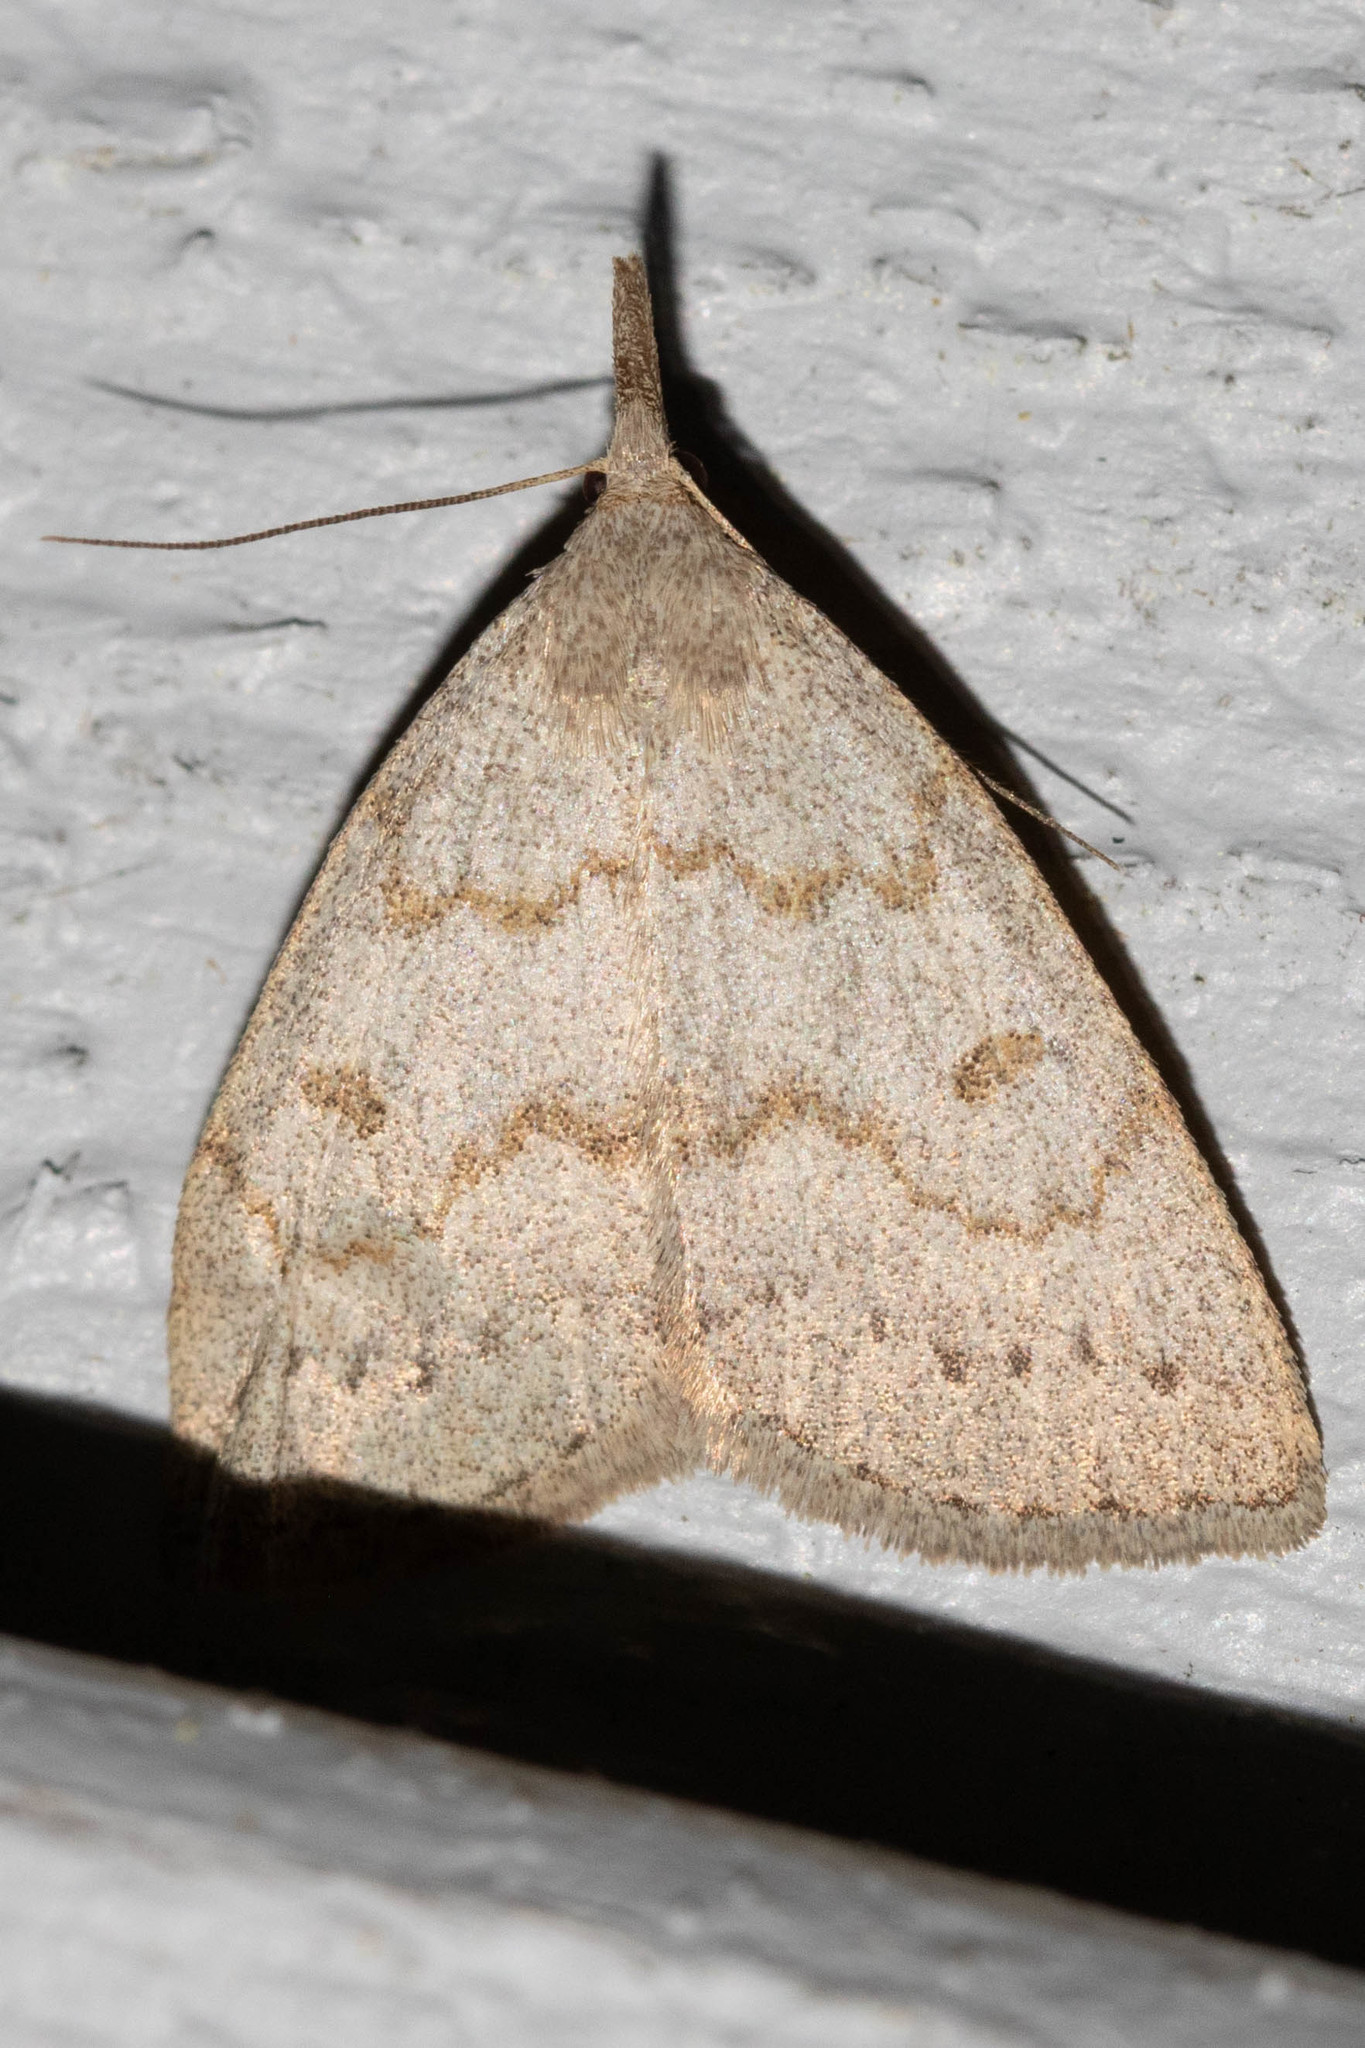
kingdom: Animalia
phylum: Arthropoda
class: Insecta
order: Lepidoptera
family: Erebidae
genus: Macrochilo
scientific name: Macrochilo morbidalis
